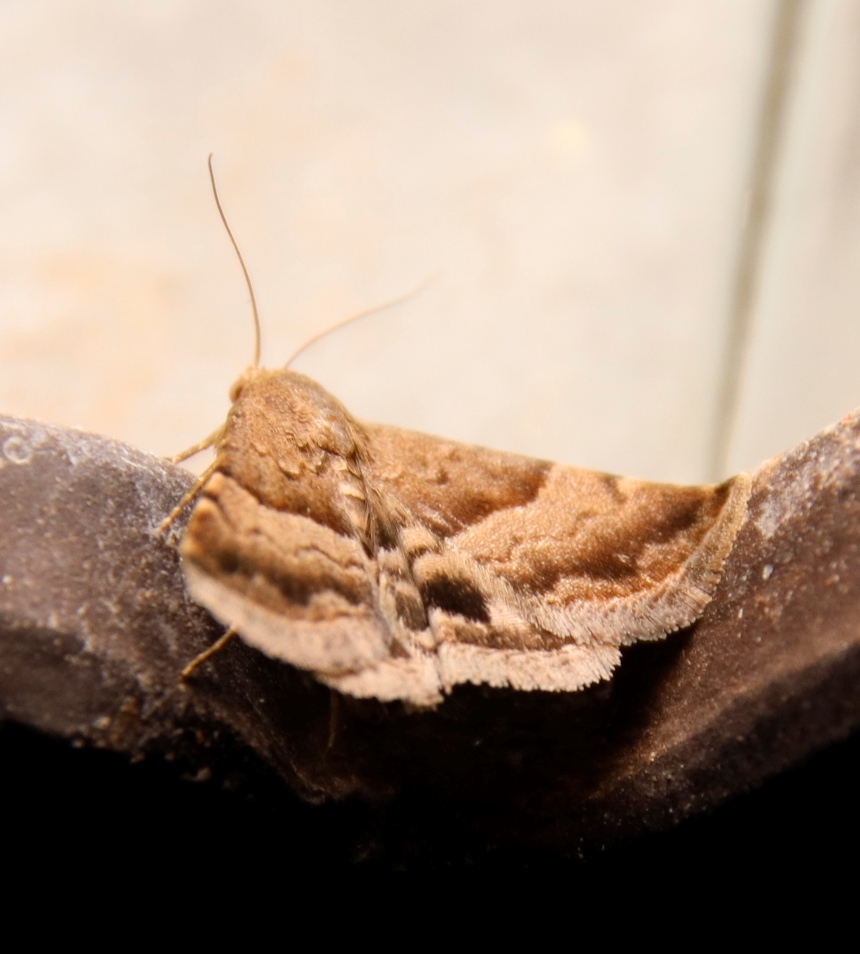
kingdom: Animalia
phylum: Arthropoda
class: Insecta
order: Lepidoptera
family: Erebidae
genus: Grammodes
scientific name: Grammodes stolida
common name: Geometrician
